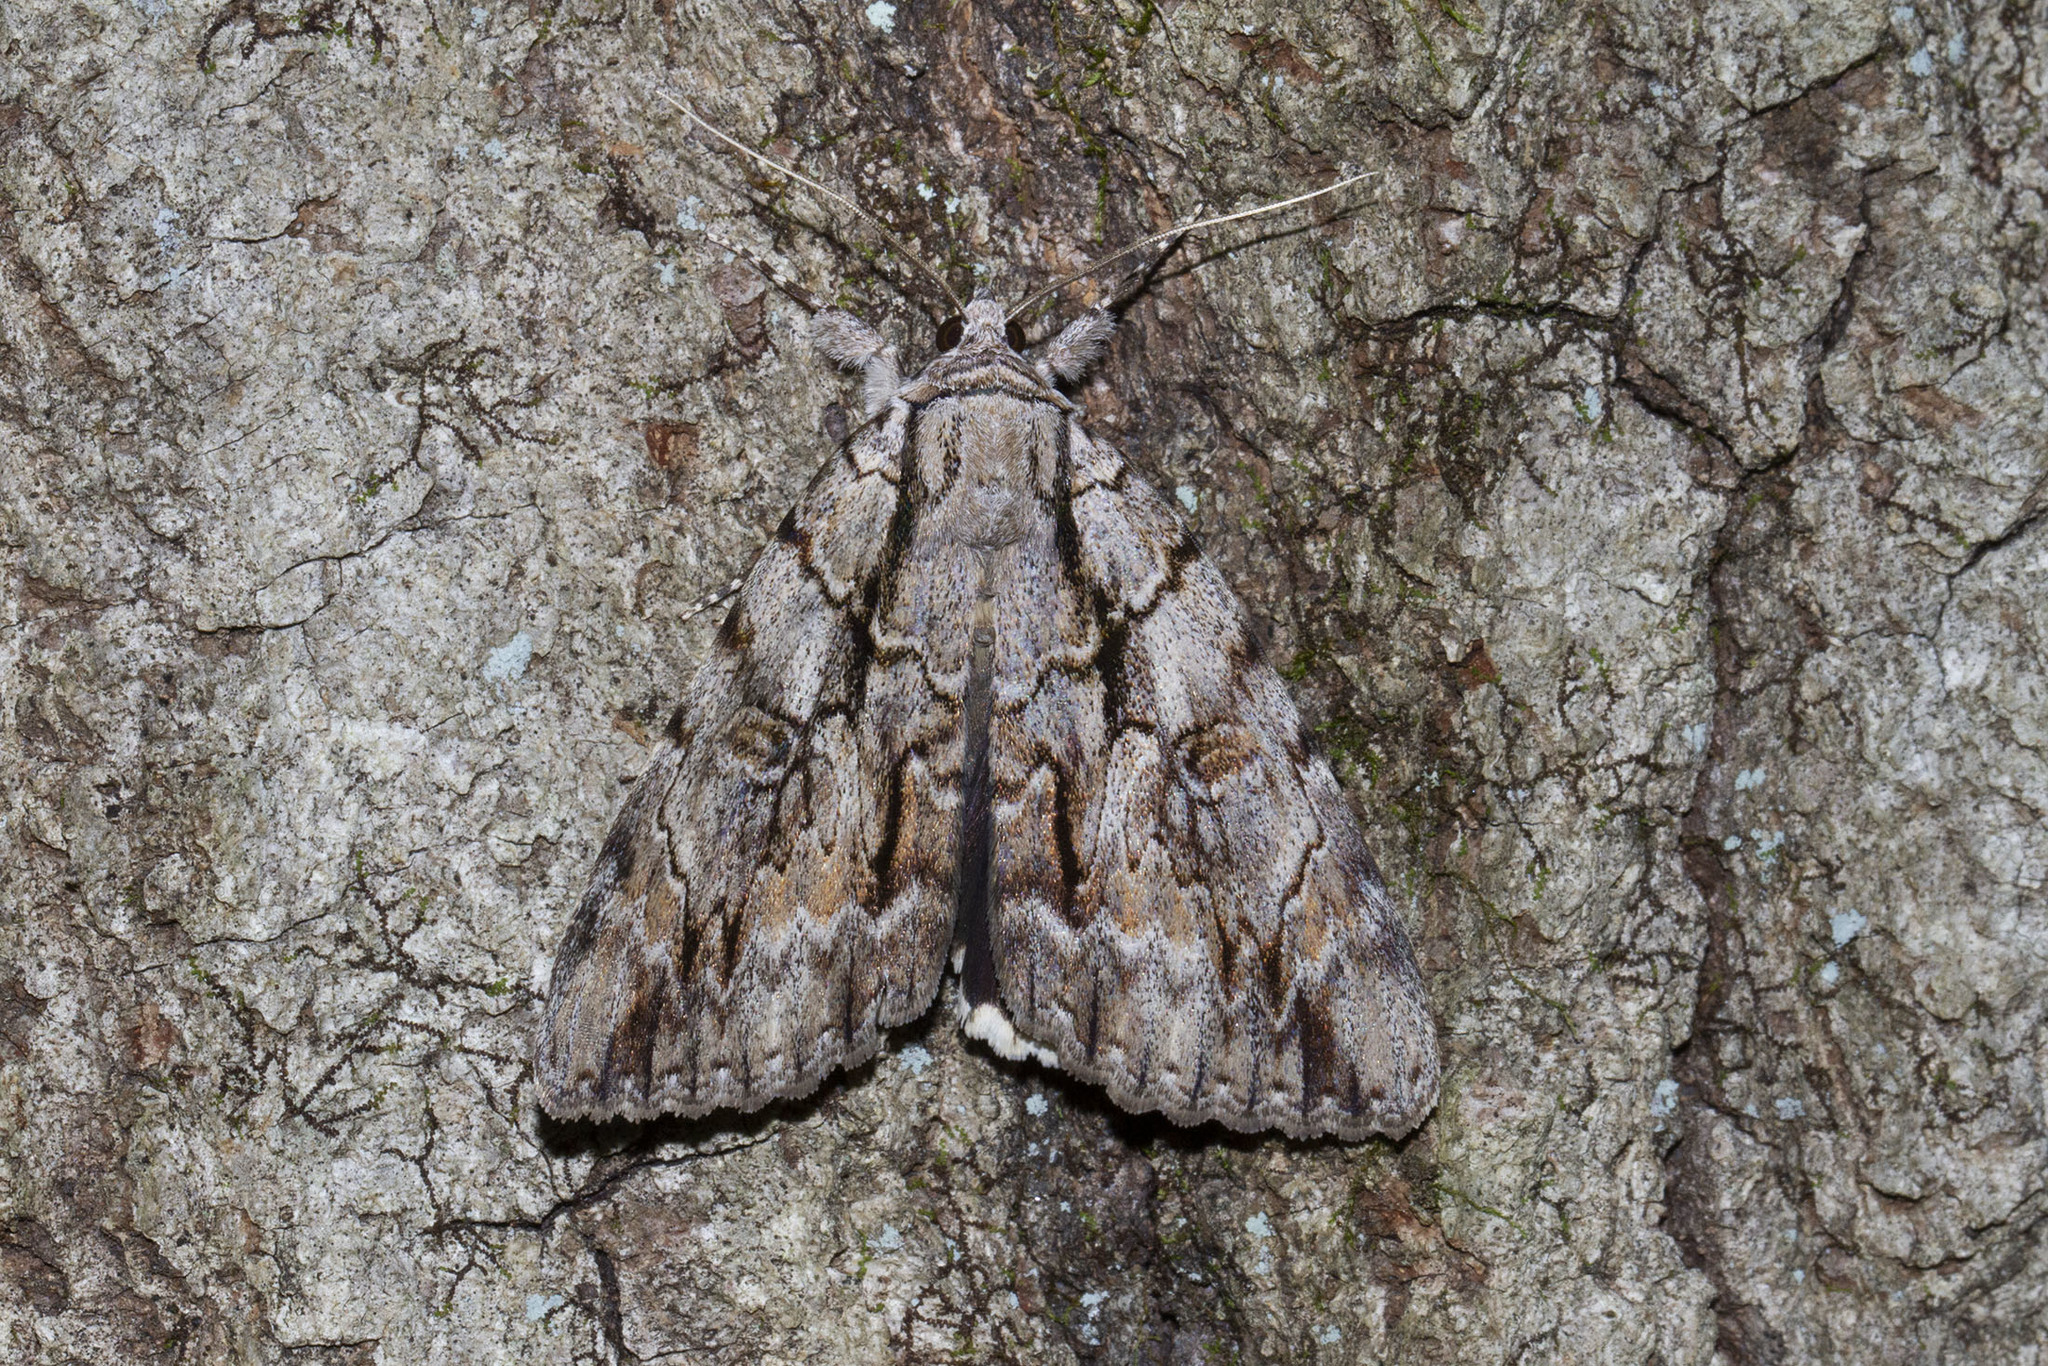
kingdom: Animalia
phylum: Arthropoda
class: Insecta
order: Lepidoptera
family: Erebidae
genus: Catocala
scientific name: Catocala retecta
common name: Yellow-gray underwing
